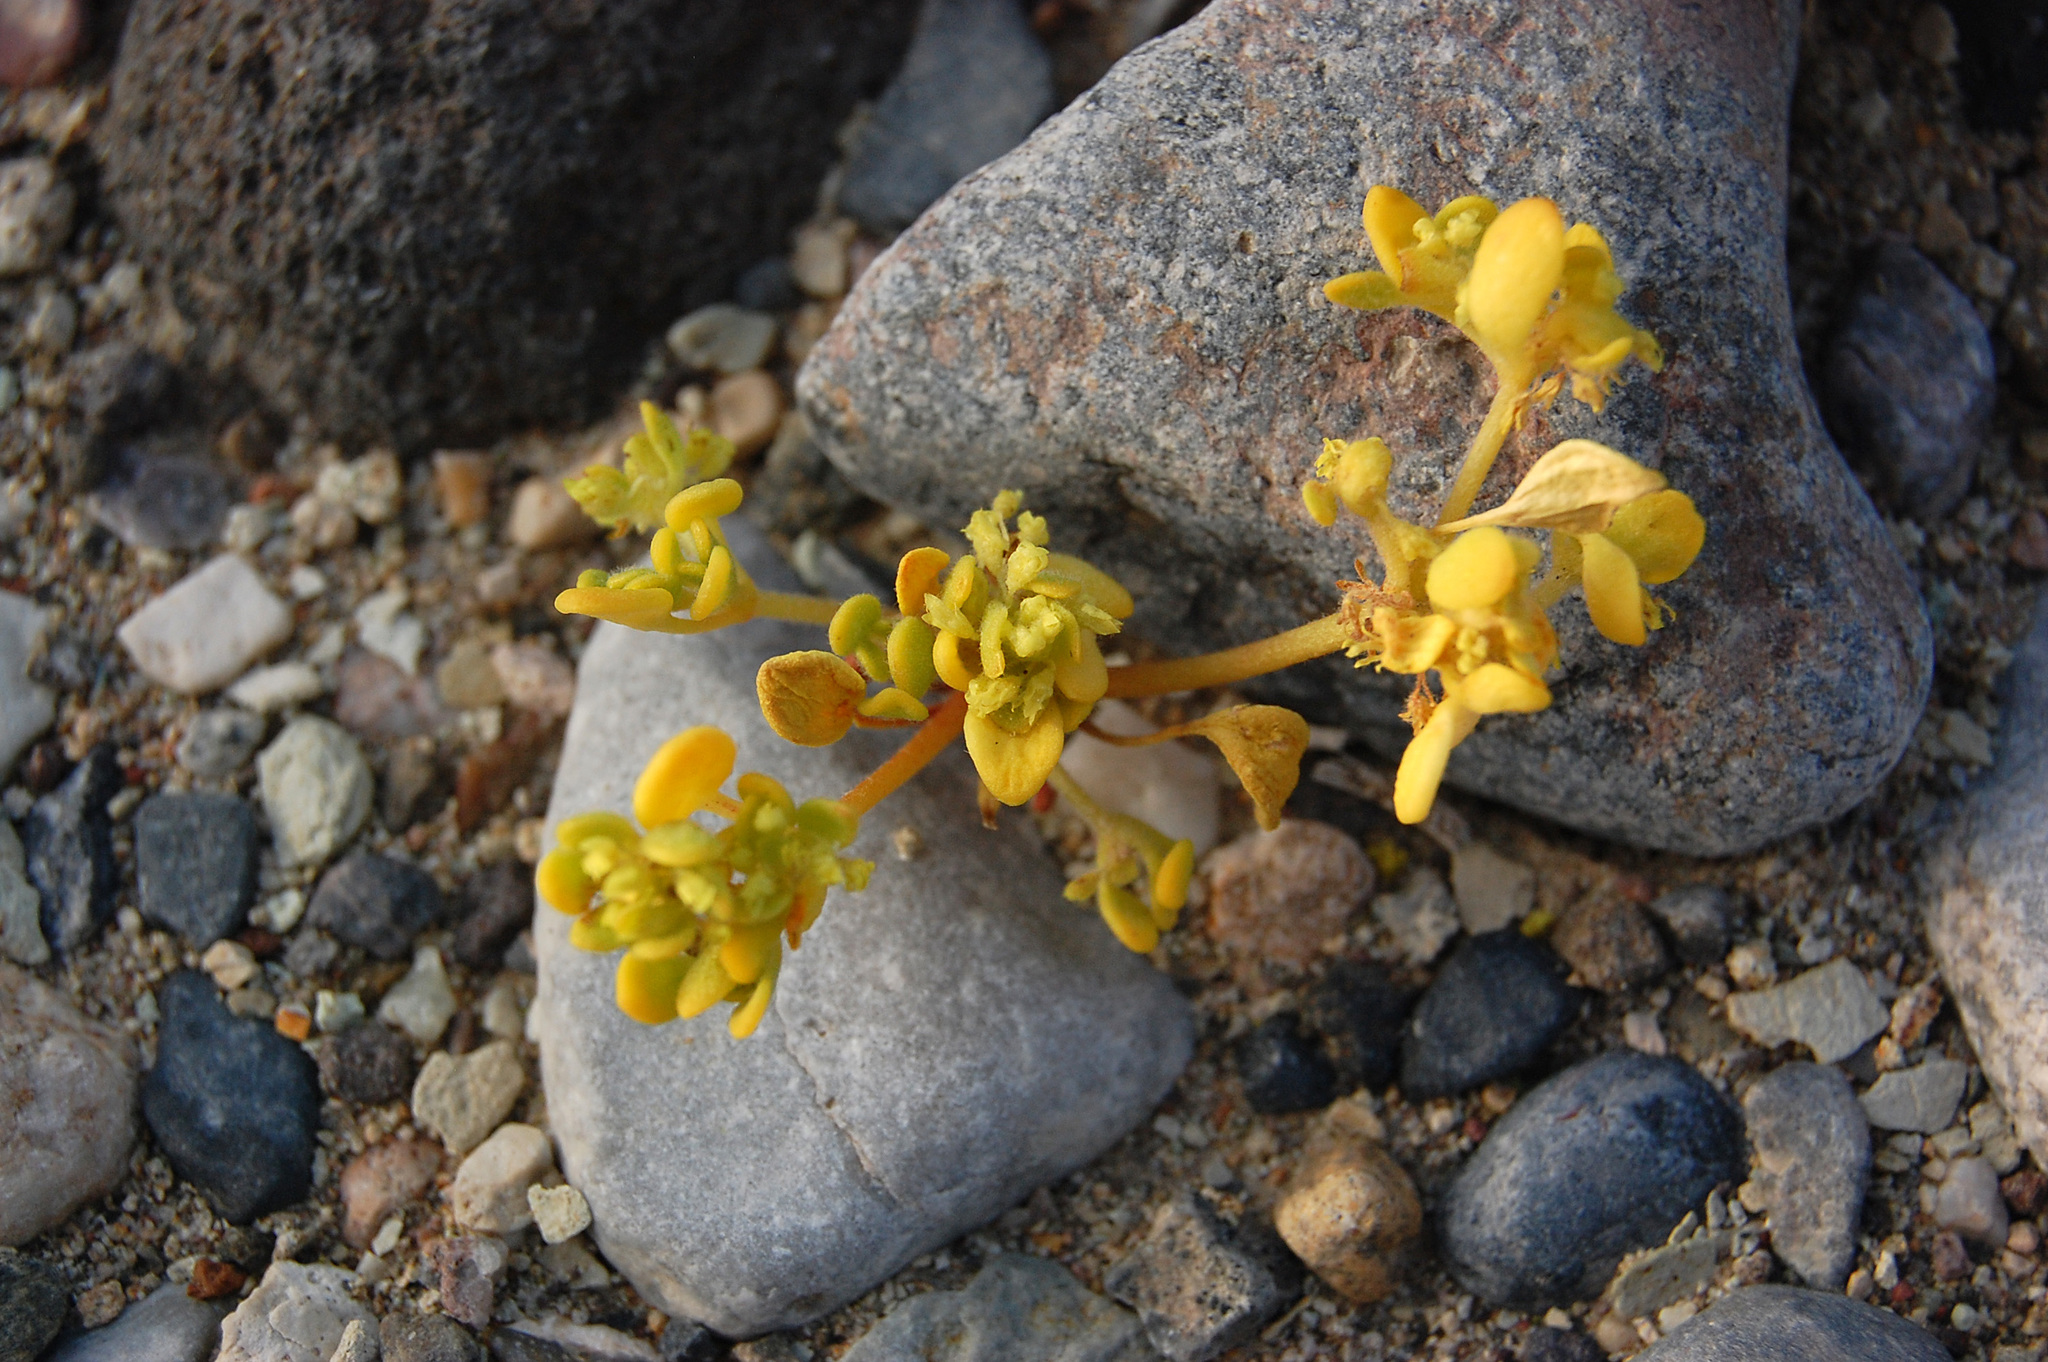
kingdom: Plantae
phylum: Tracheophyta
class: Magnoliopsida
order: Caryophyllales
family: Polygonaceae
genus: Gilmania
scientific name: Gilmania luteola
